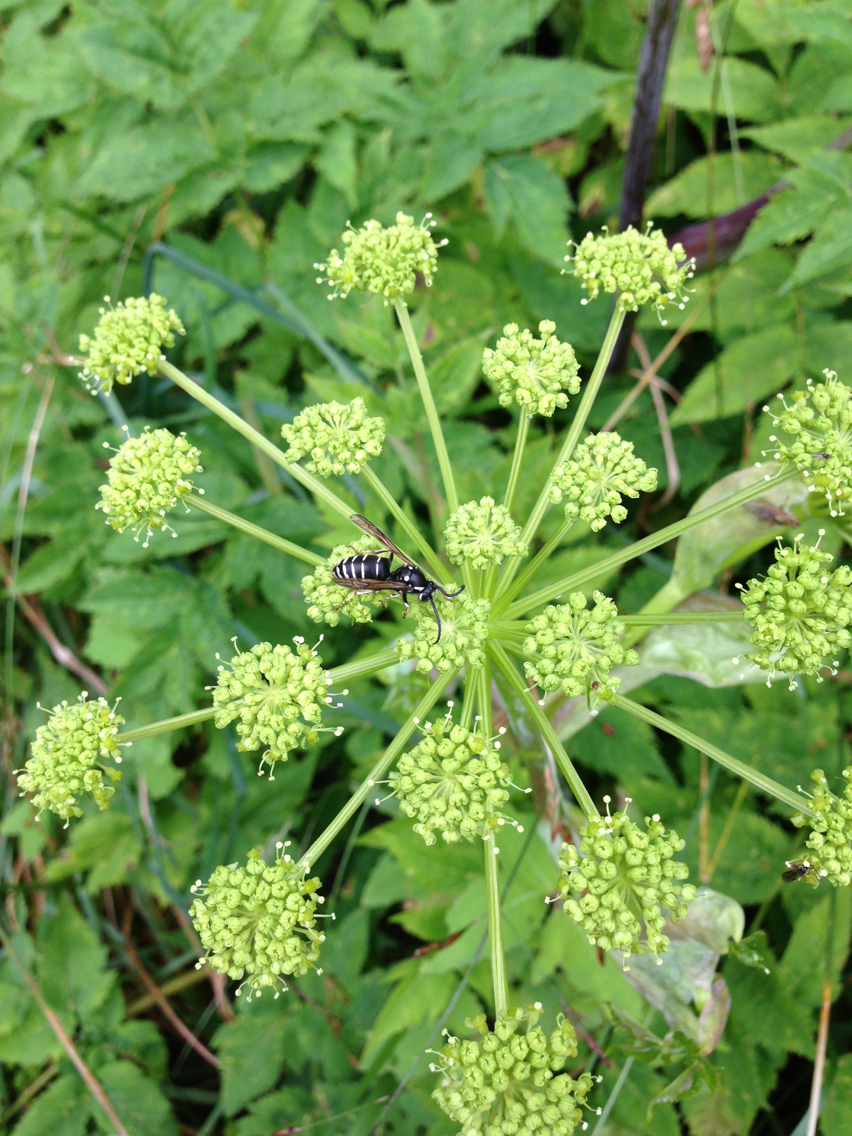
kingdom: Animalia
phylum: Arthropoda
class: Insecta
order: Hymenoptera
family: Vespidae
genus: Dolichovespula
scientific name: Dolichovespula adulterina
